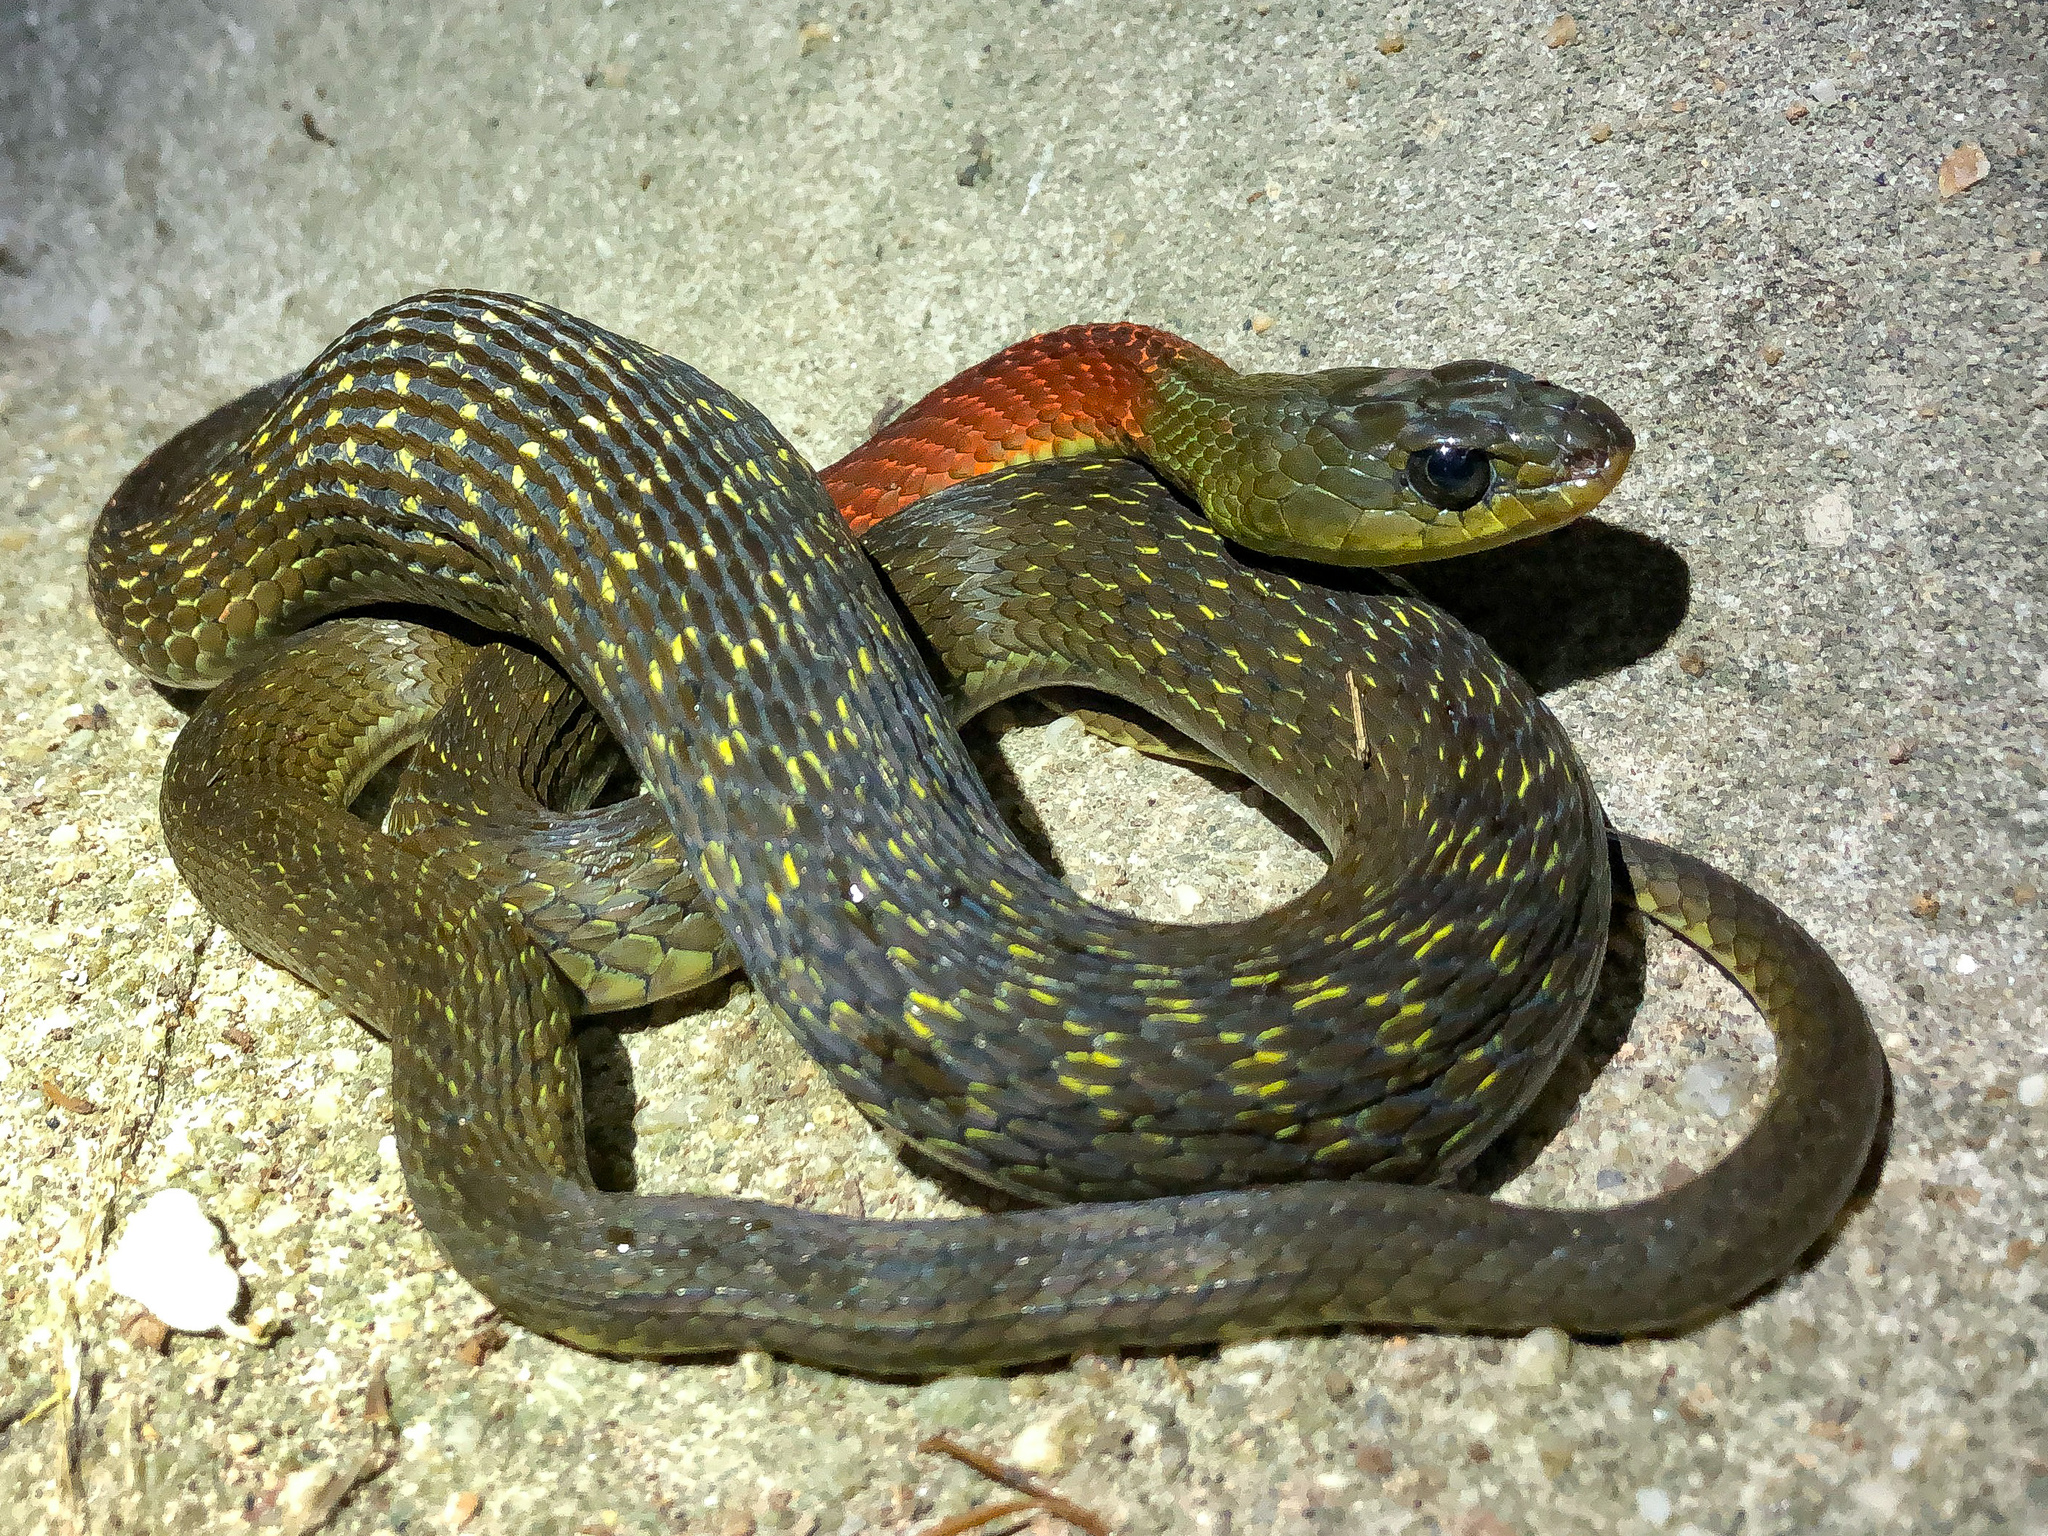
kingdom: Animalia
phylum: Chordata
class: Squamata
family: Colubridae
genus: Rhabdophis
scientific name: Rhabdophis helleri
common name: Heller’s red-necked keelback
